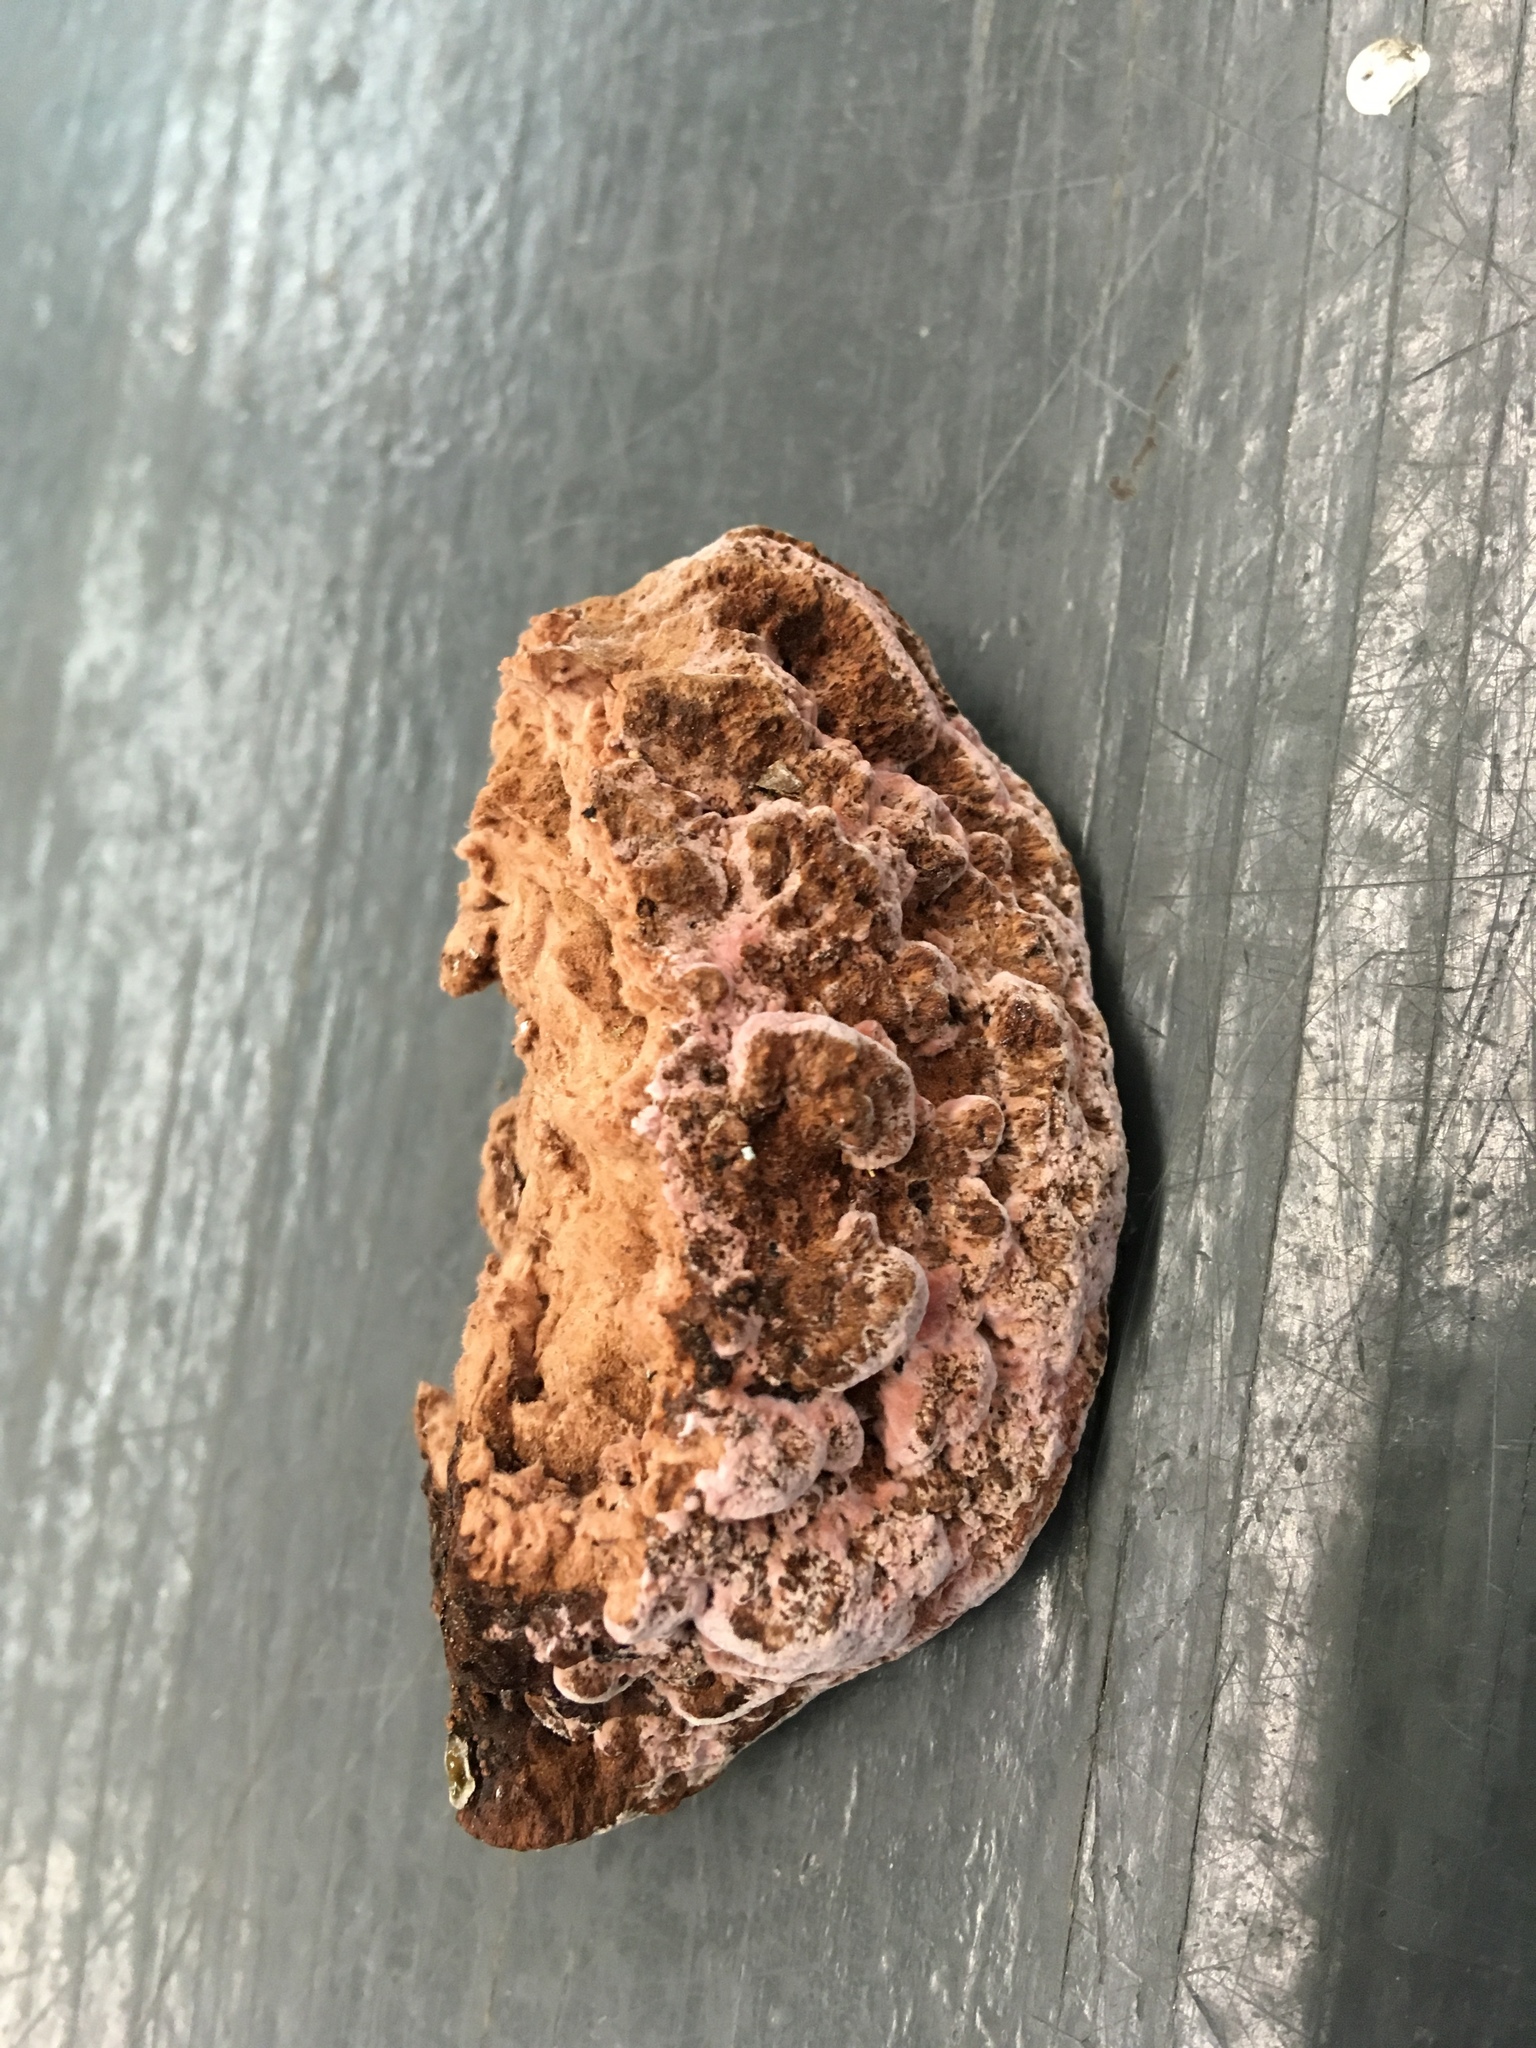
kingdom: Fungi
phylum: Basidiomycota
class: Agaricomycetes
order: Polyporales
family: Fomitopsidaceae
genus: Rhodofomes
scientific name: Rhodofomes cajanderi
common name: Rosy conk
